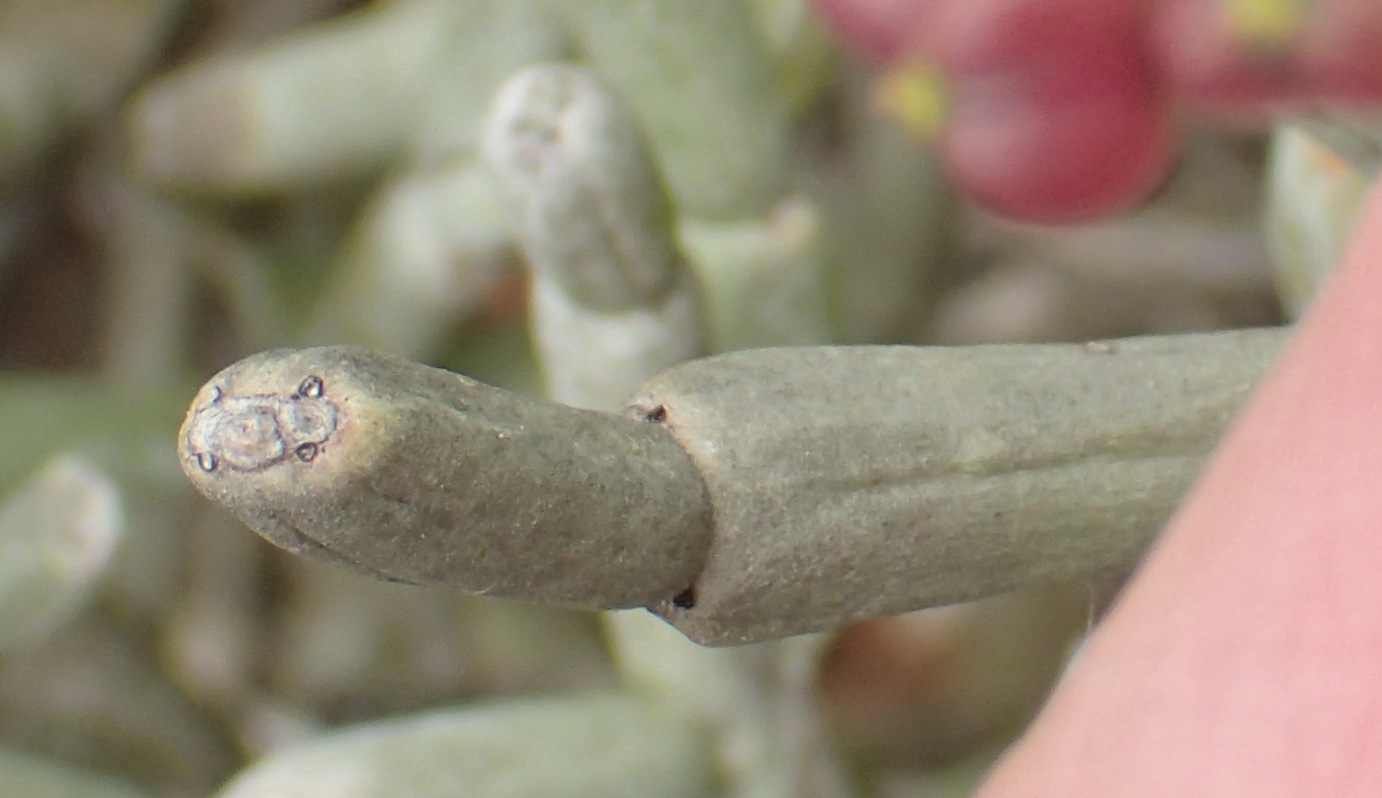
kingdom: Plantae
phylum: Tracheophyta
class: Magnoliopsida
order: Malpighiales
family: Euphorbiaceae
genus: Euphorbia
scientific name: Euphorbia burmanni
